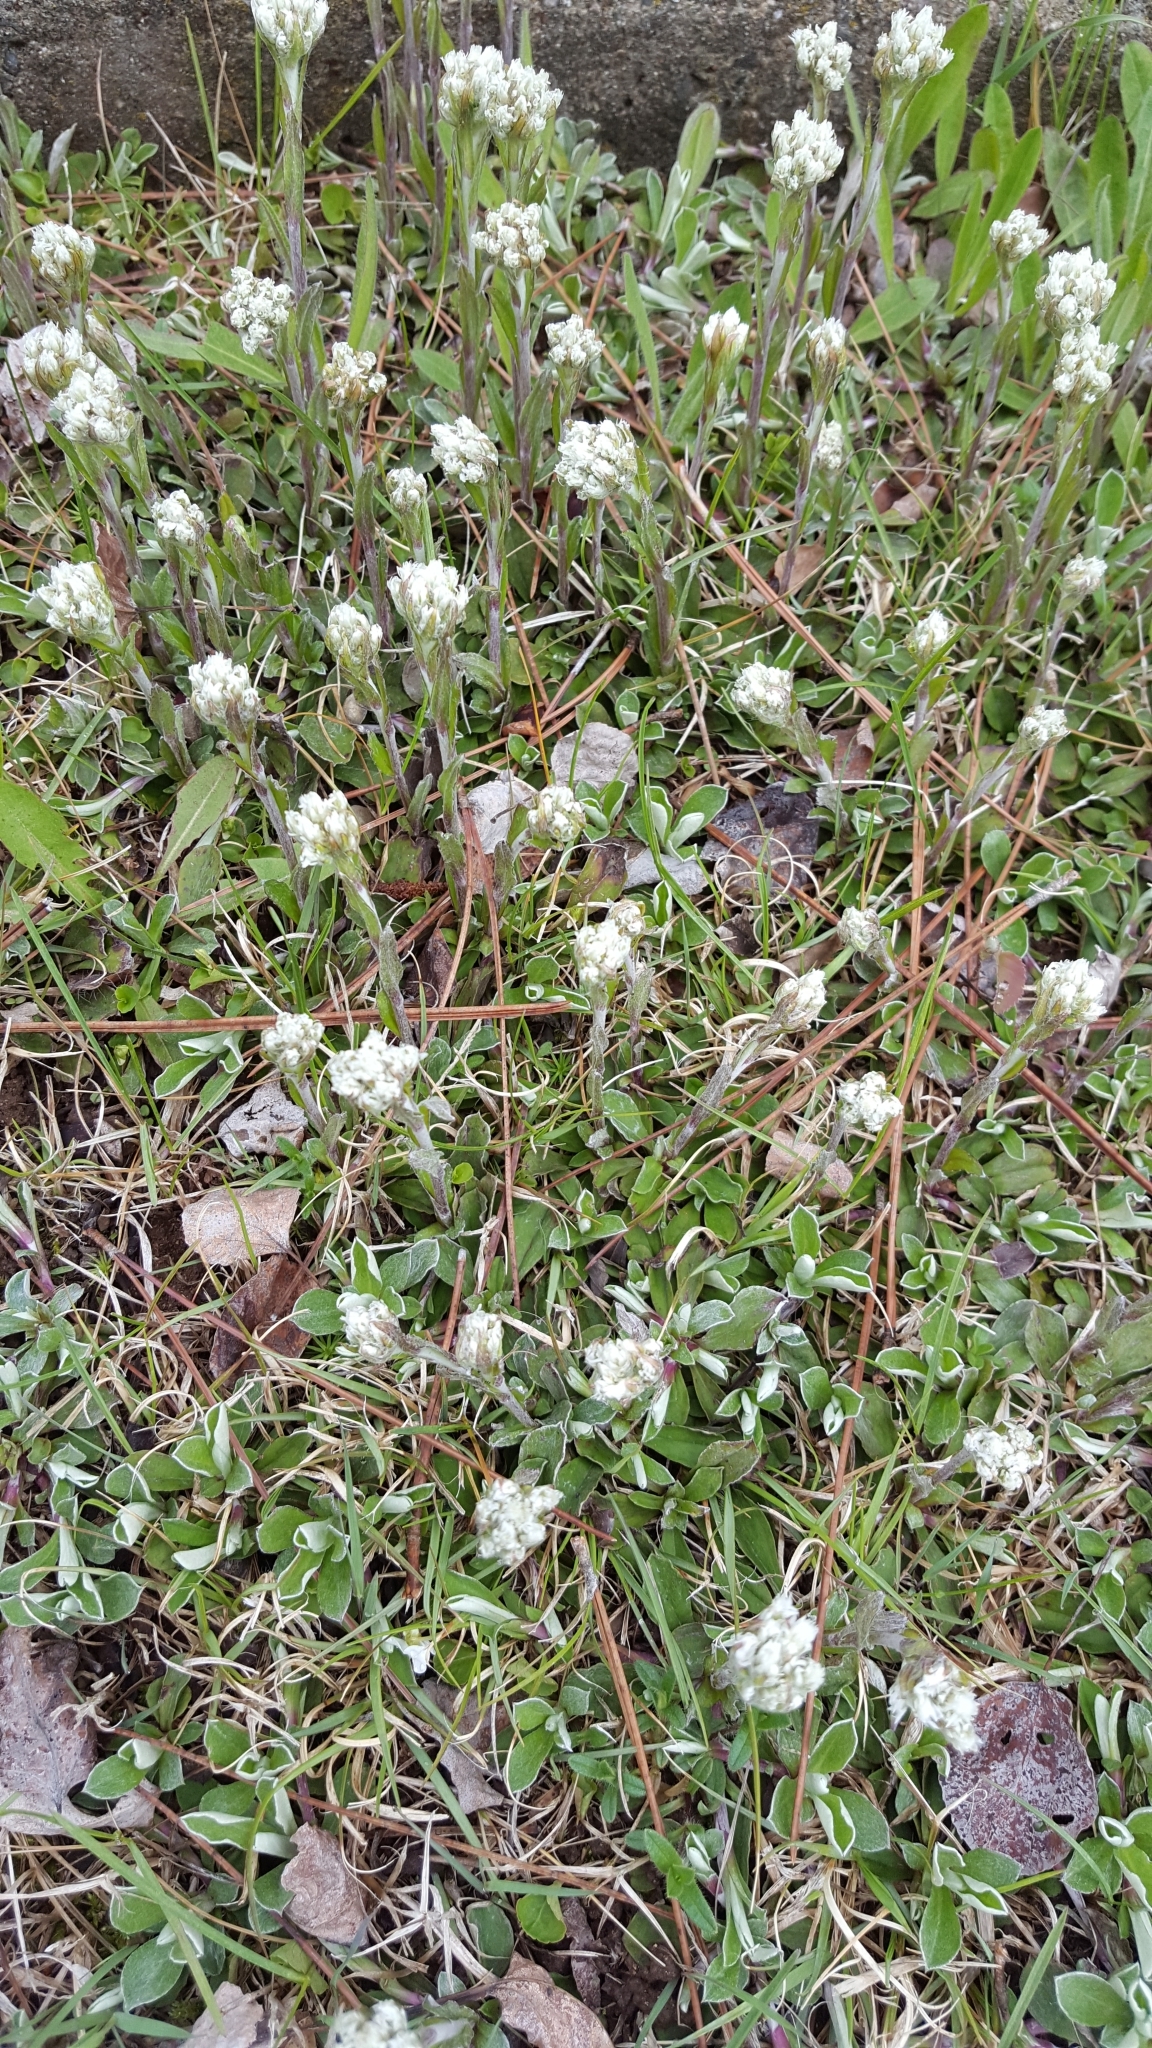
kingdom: Plantae
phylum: Tracheophyta
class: Magnoliopsida
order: Asterales
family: Asteraceae
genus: Antennaria
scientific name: Antennaria neglecta
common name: Field pussytoes
